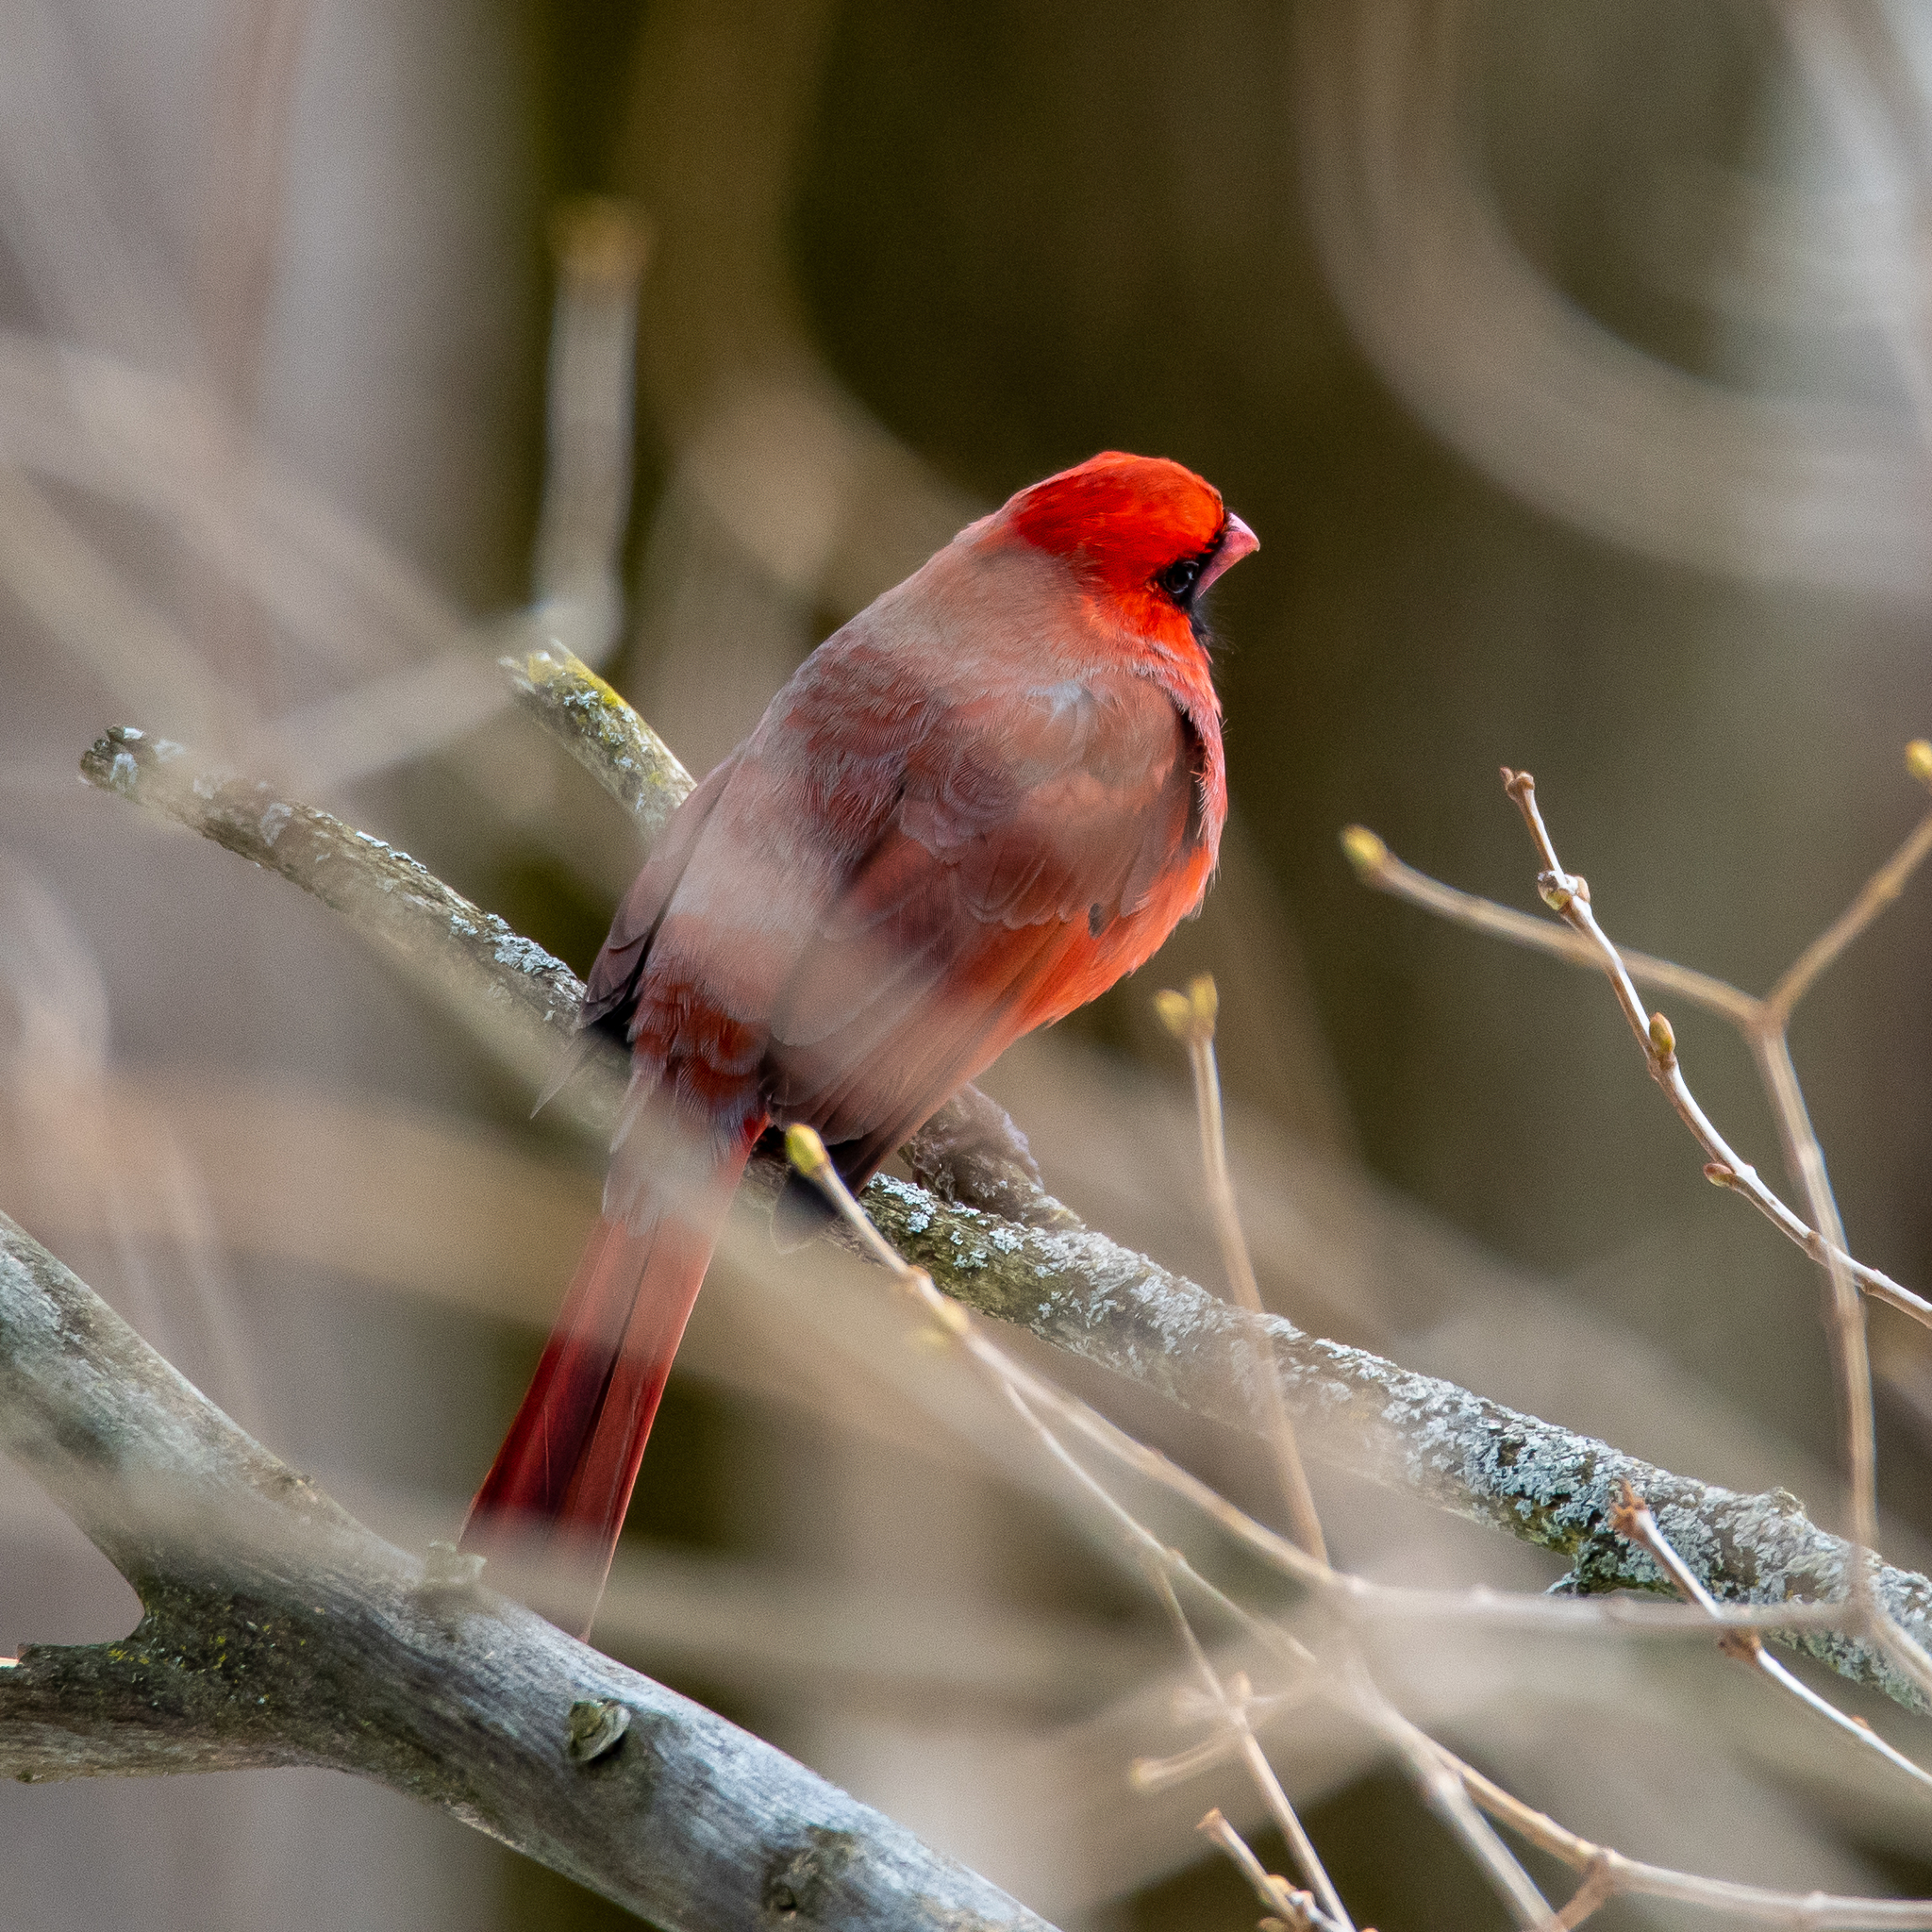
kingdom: Animalia
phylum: Chordata
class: Aves
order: Passeriformes
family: Cardinalidae
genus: Cardinalis
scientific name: Cardinalis cardinalis
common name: Northern cardinal
